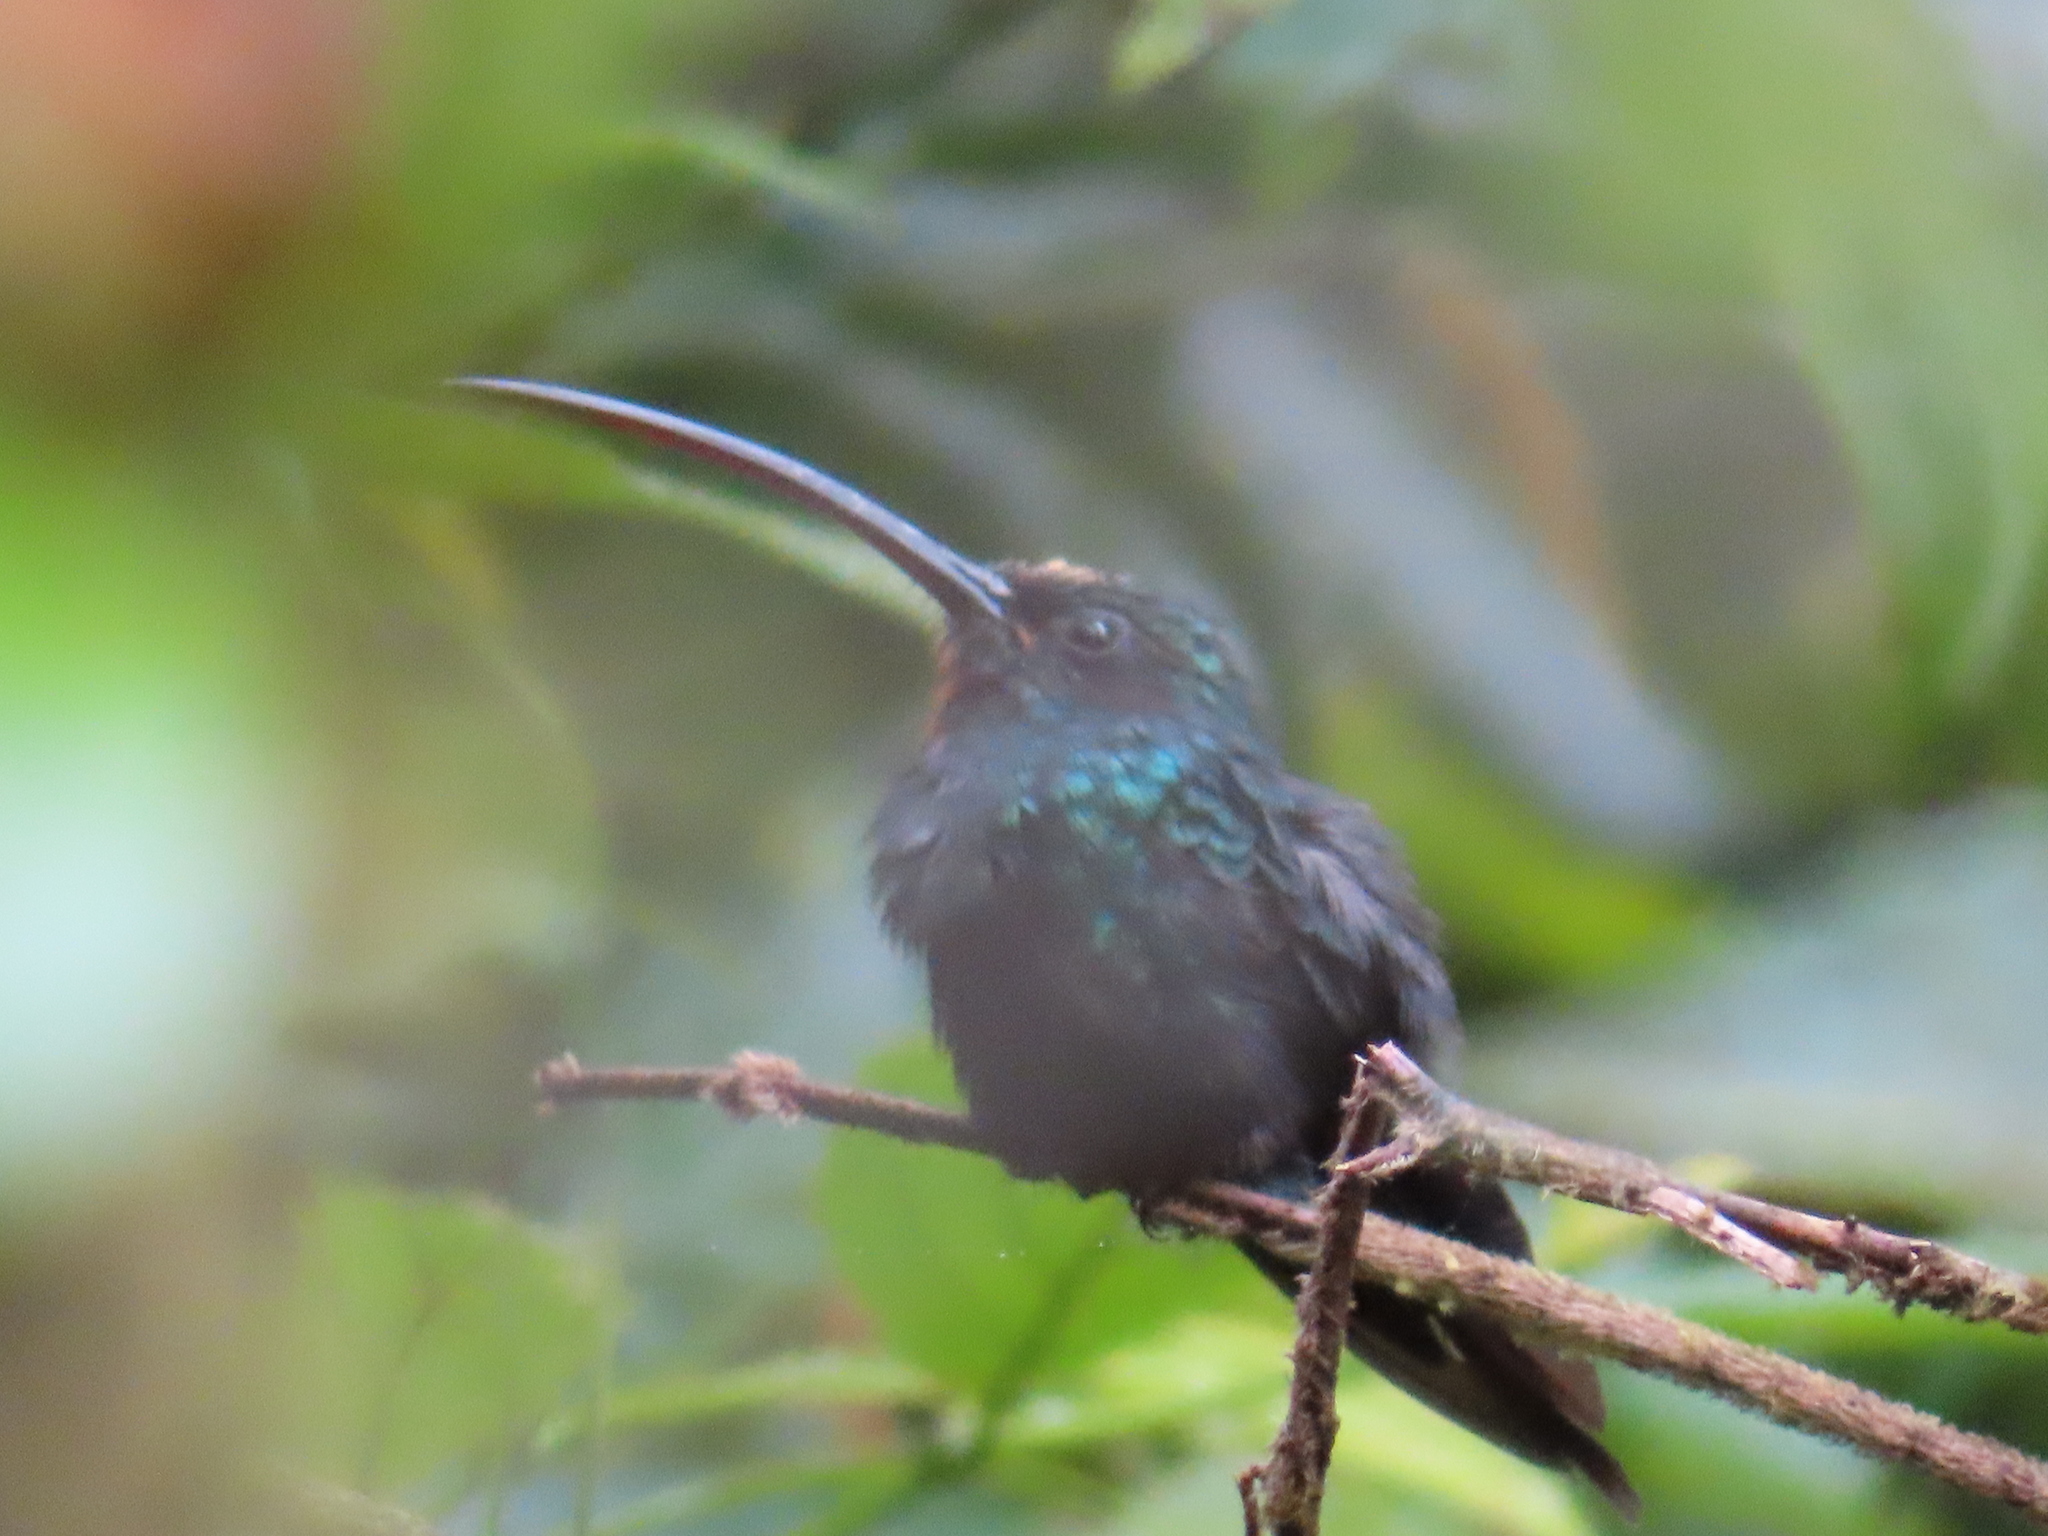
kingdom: Animalia
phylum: Chordata
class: Aves
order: Apodiformes
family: Trochilidae
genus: Phaethornis
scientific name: Phaethornis guy
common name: Green hermit
